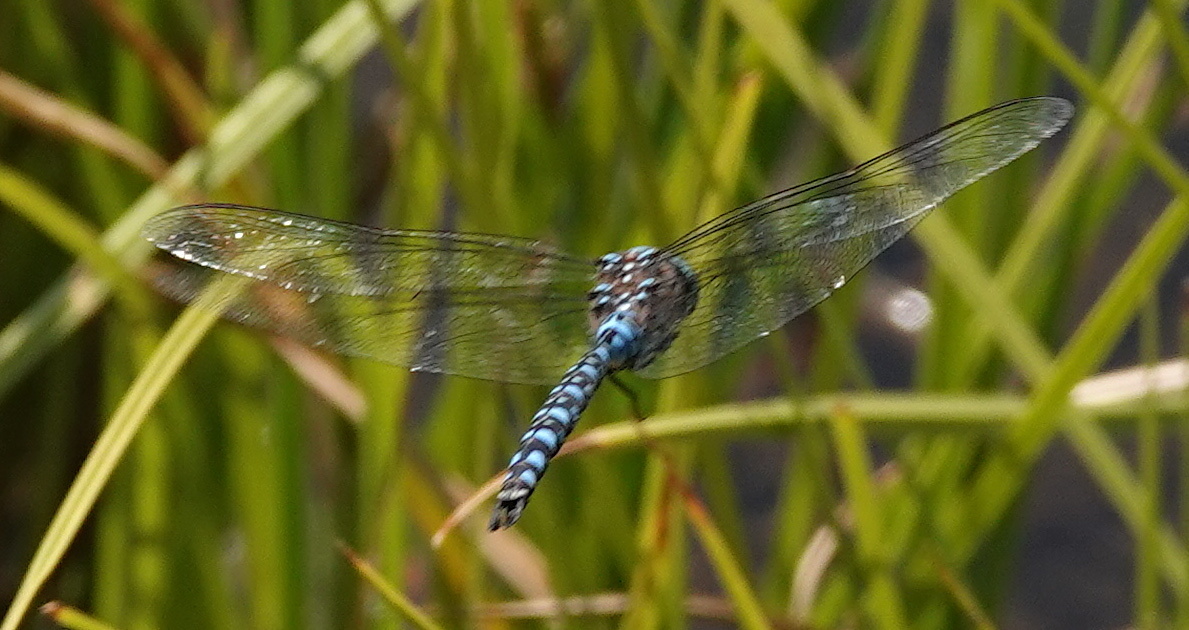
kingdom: Animalia
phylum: Arthropoda
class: Insecta
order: Odonata
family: Aeshnidae
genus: Aeshna
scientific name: Aeshna interrupta
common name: Variable darner
